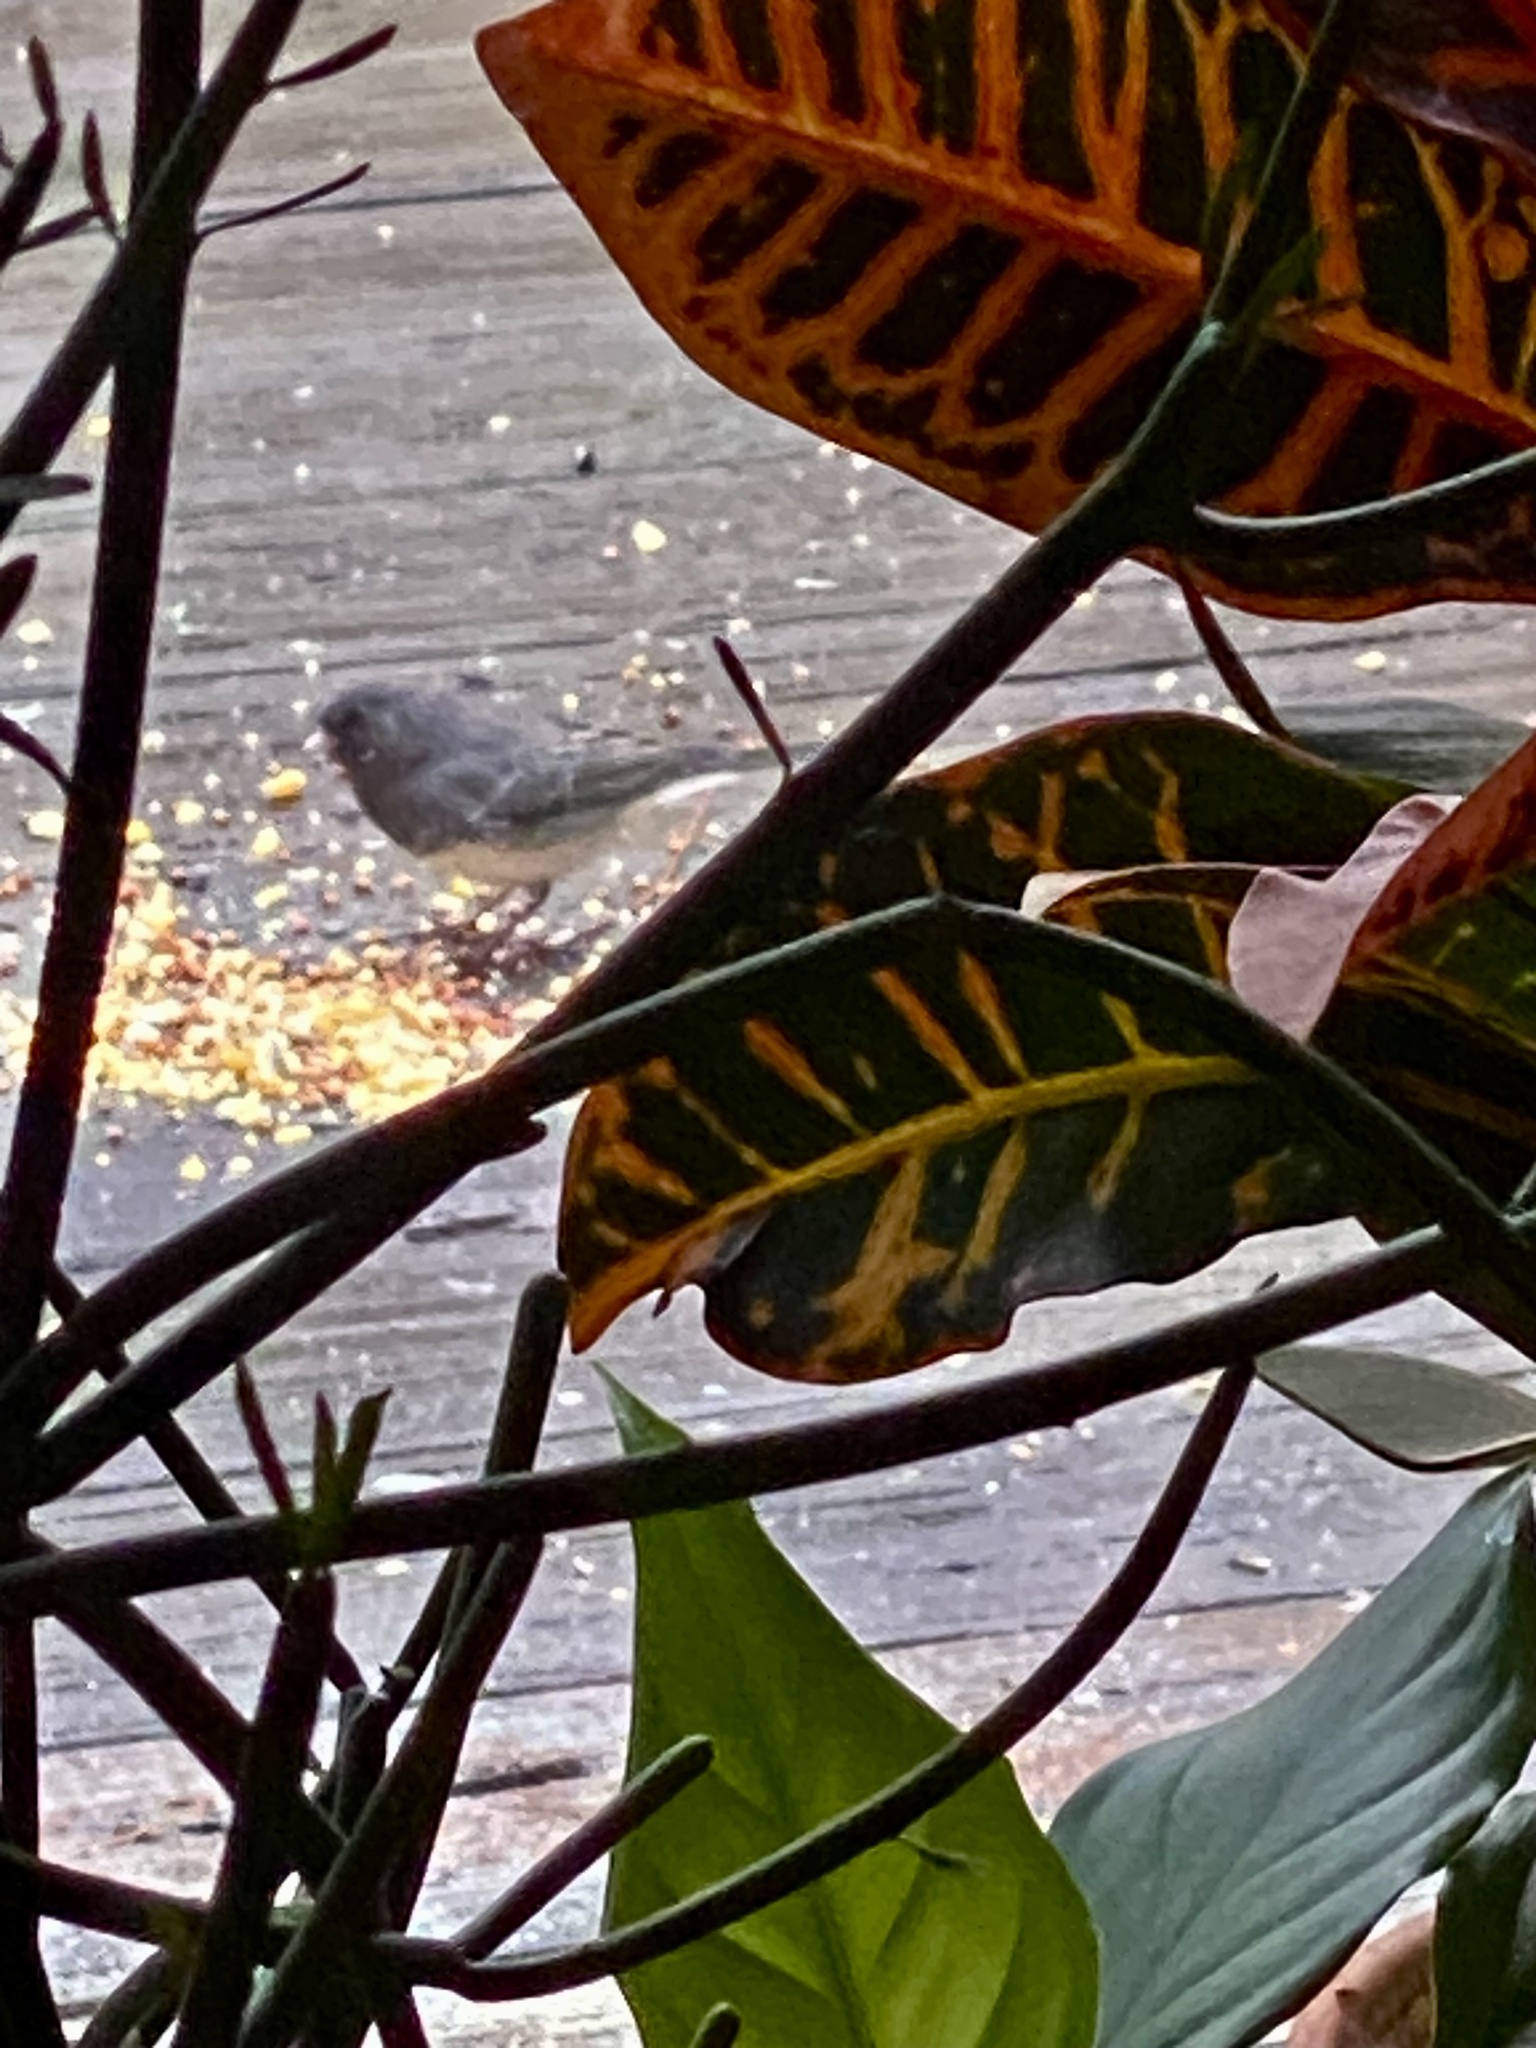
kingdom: Animalia
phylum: Chordata
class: Aves
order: Passeriformes
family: Passerellidae
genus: Junco
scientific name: Junco hyemalis
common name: Dark-eyed junco
